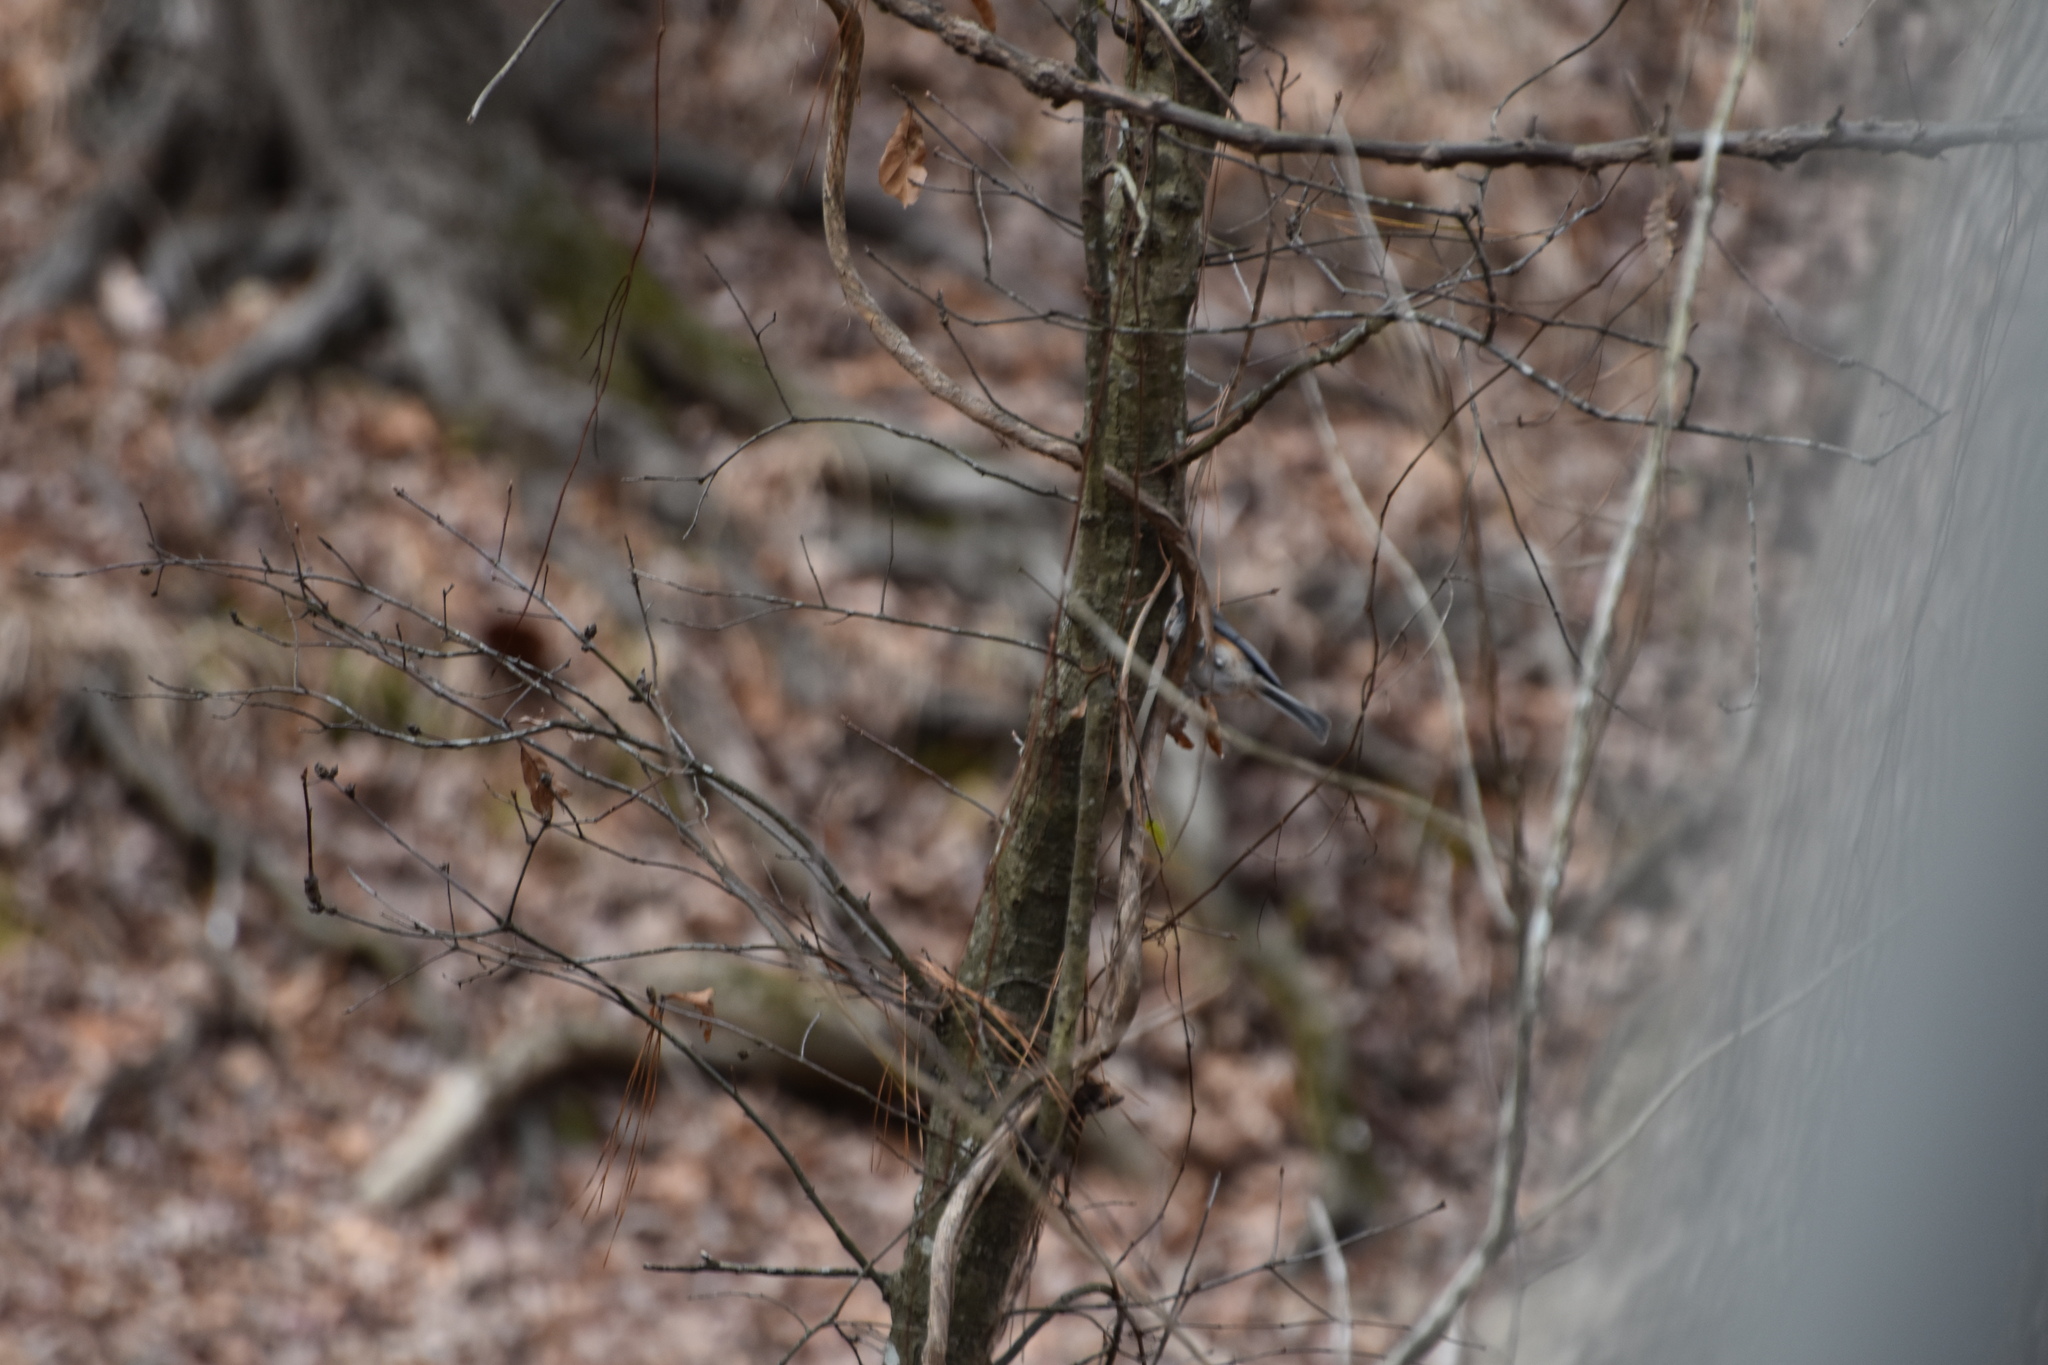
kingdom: Animalia
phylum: Chordata
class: Aves
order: Passeriformes
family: Paridae
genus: Baeolophus
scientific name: Baeolophus bicolor
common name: Tufted titmouse
